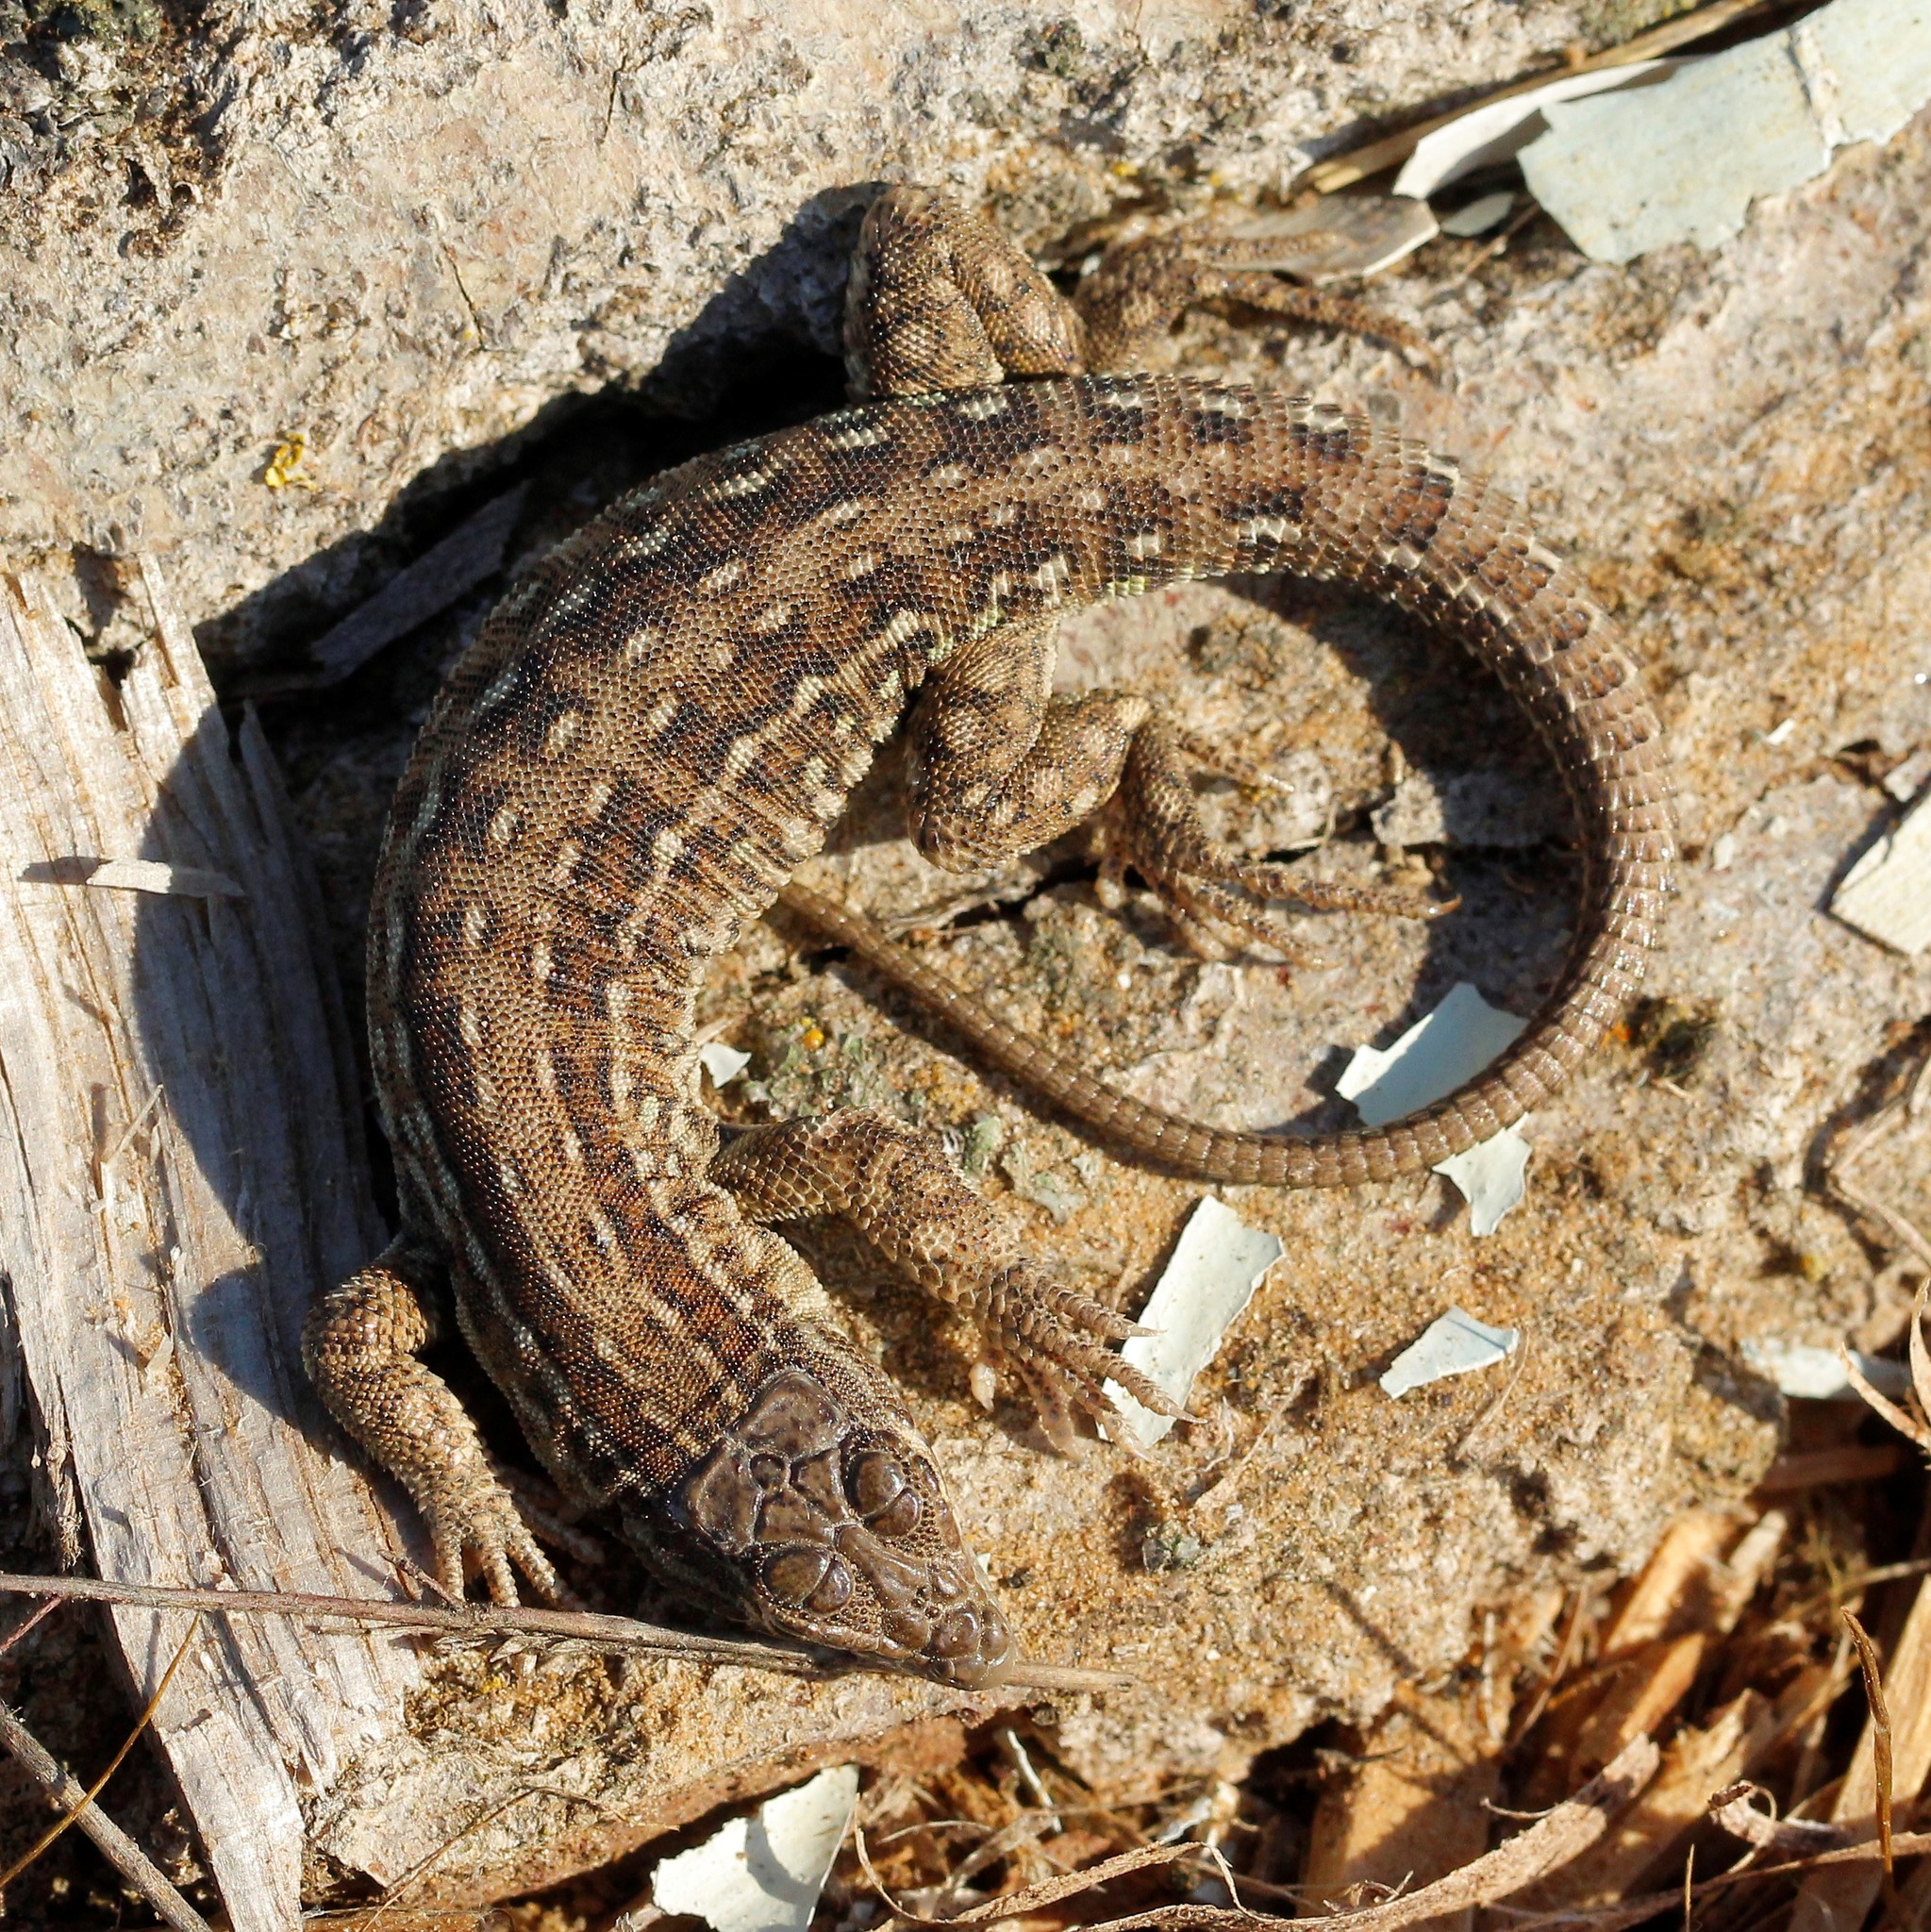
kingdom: Animalia
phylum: Chordata
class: Squamata
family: Lacertidae
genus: Eremias
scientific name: Eremias arguta
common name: Racerunner
